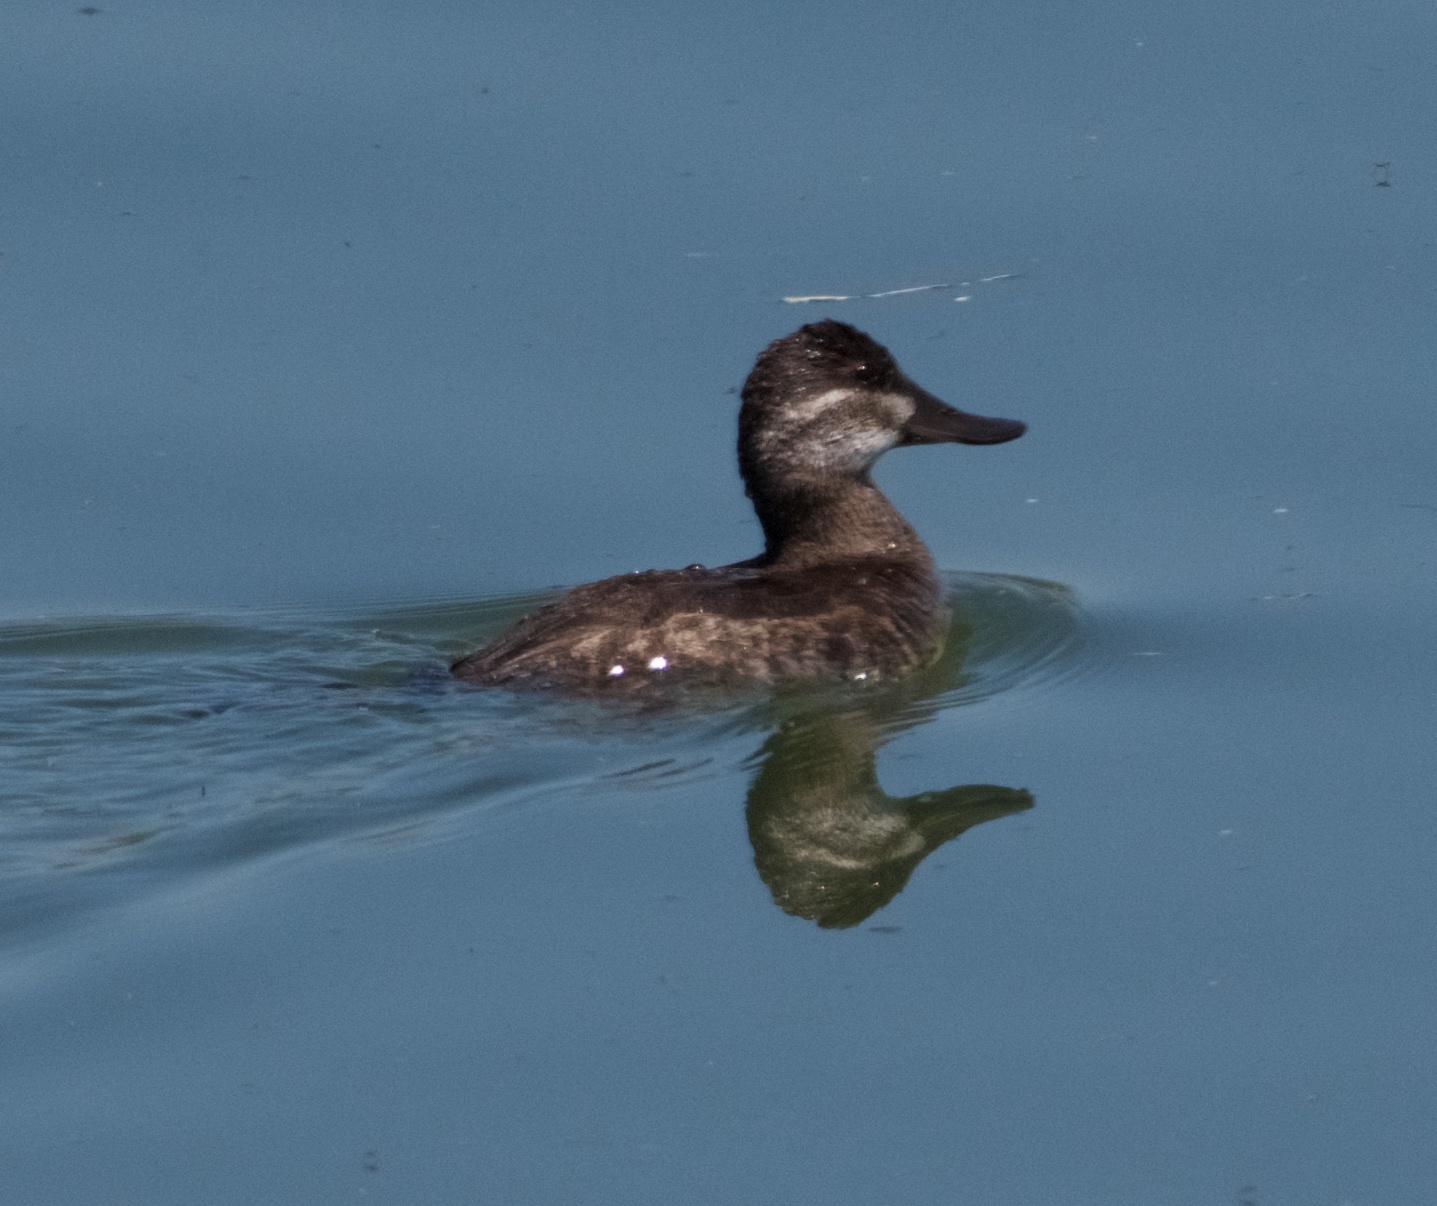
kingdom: Animalia
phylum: Chordata
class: Aves
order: Anseriformes
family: Anatidae
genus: Oxyura
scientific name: Oxyura jamaicensis
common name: Ruddy duck
